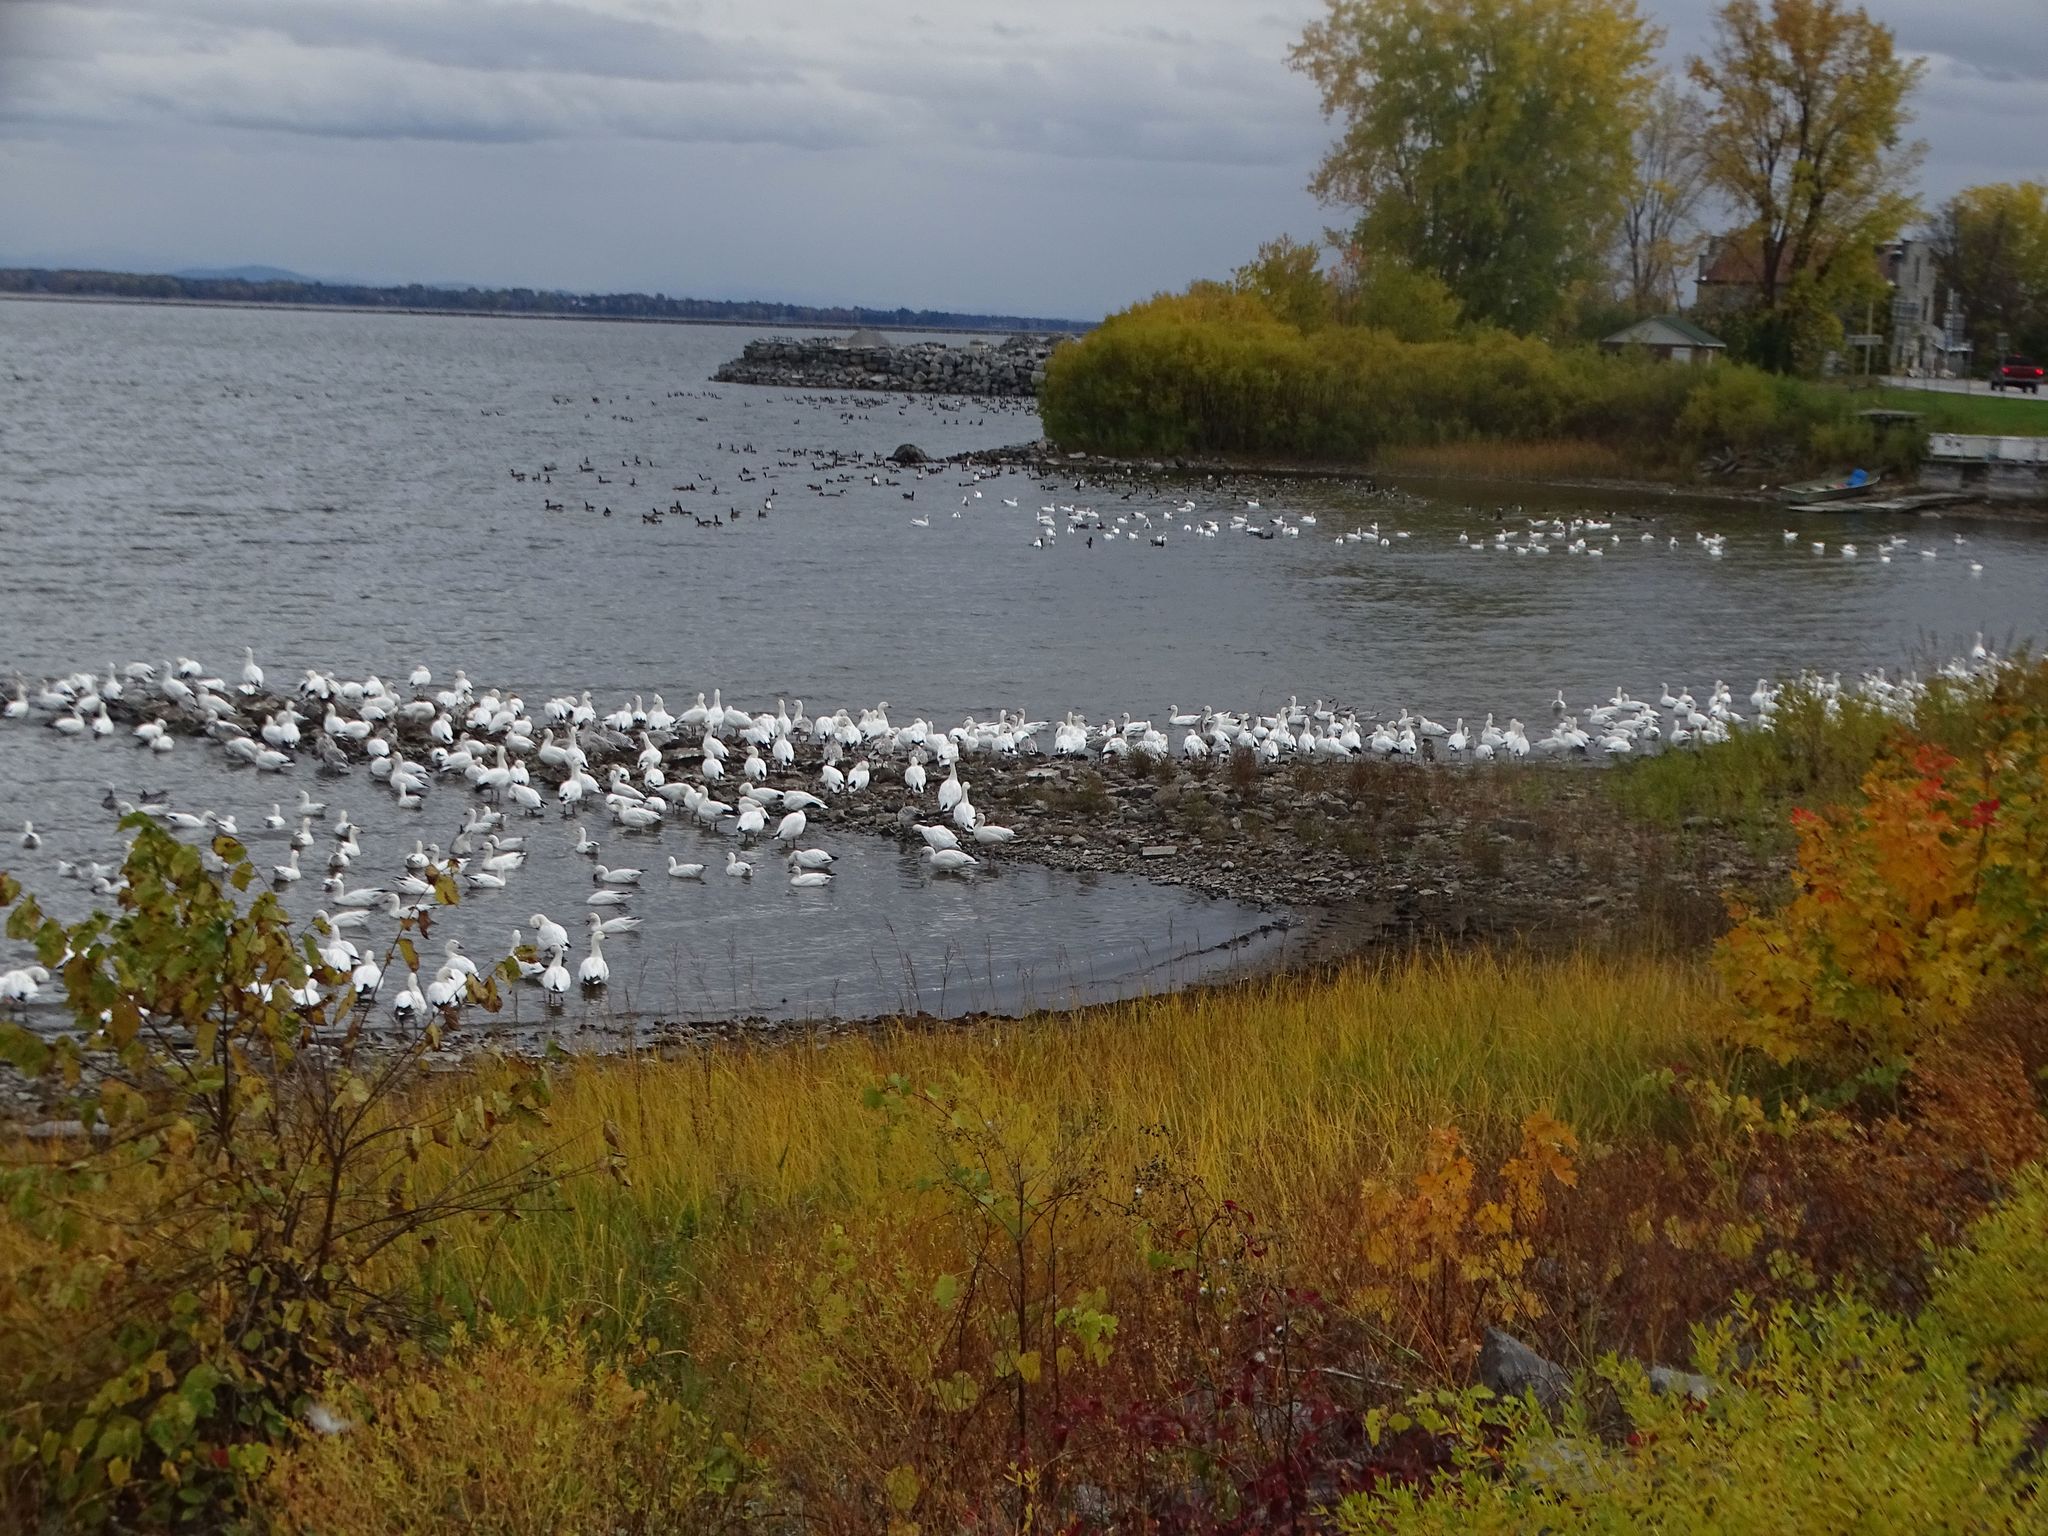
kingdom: Animalia
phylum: Chordata
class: Aves
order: Anseriformes
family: Anatidae
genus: Anser
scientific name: Anser caerulescens
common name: Snow goose
